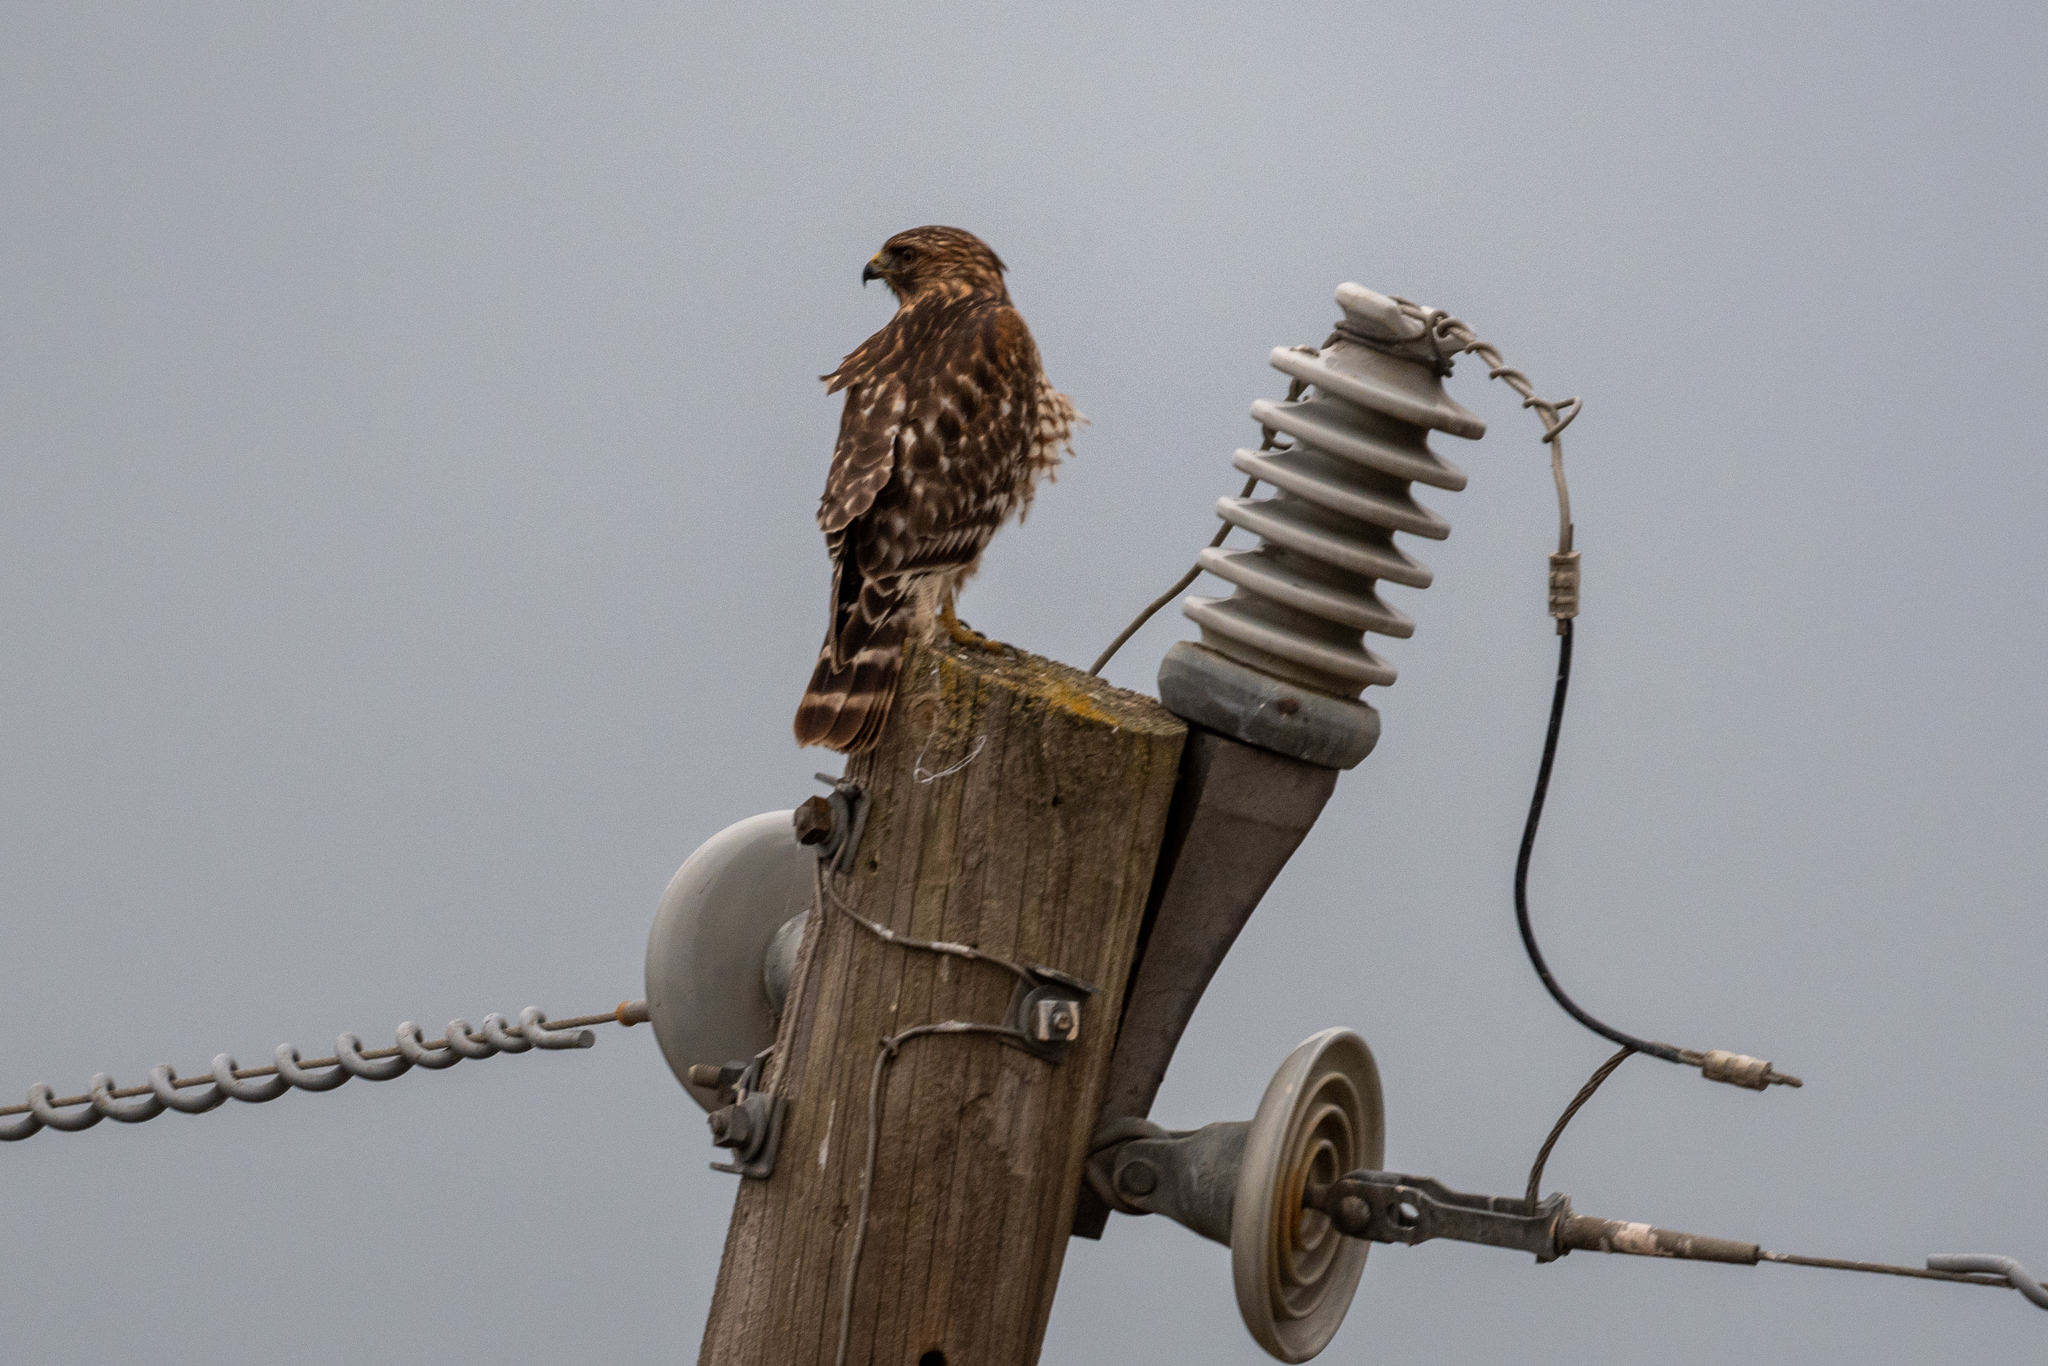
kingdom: Animalia
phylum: Chordata
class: Aves
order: Accipitriformes
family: Accipitridae
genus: Buteo
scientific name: Buteo lineatus
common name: Red-shouldered hawk
